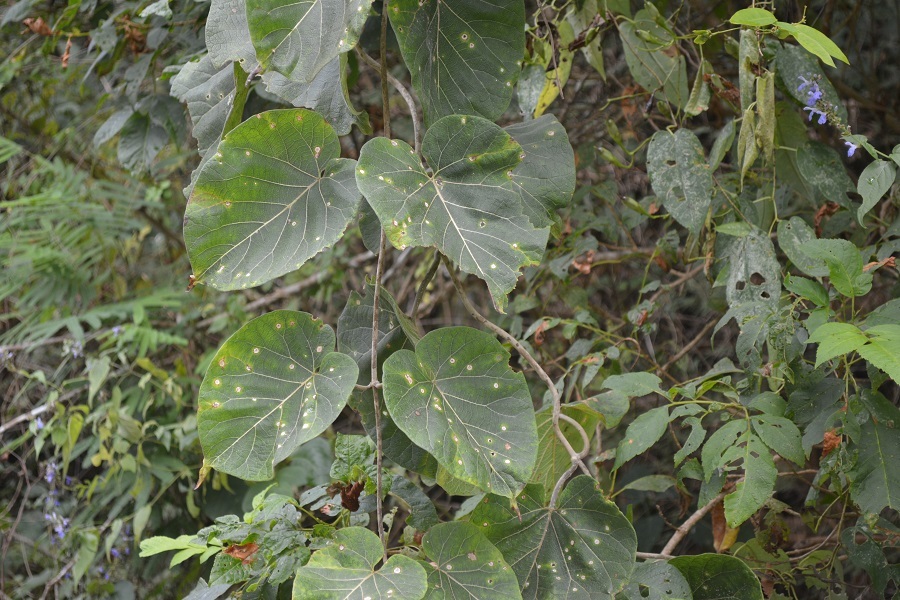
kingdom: Plantae
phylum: Tracheophyta
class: Magnoliopsida
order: Gentianales
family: Apocynaceae
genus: Ruehssia
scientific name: Ruehssia mexicana
